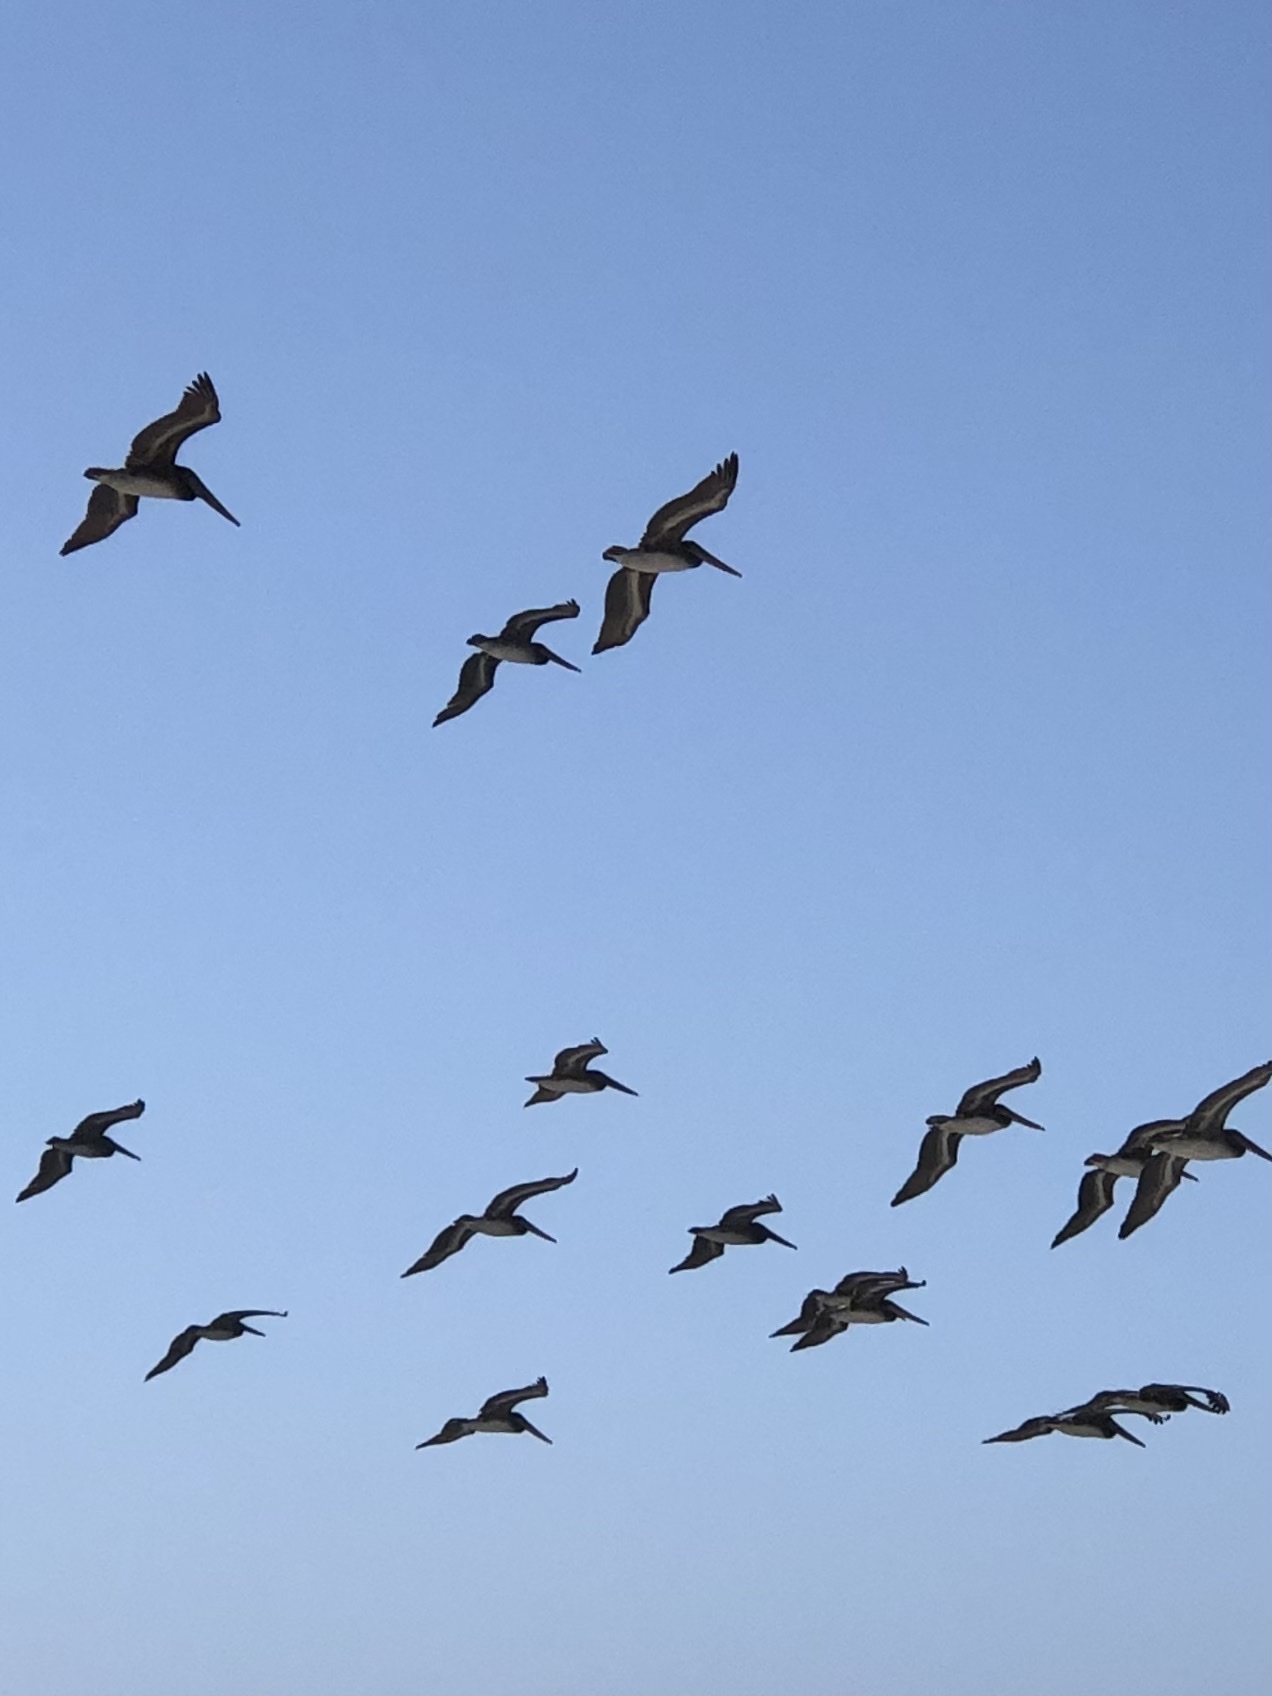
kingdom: Animalia
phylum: Chordata
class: Aves
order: Pelecaniformes
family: Pelecanidae
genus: Pelecanus
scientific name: Pelecanus occidentalis
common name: Brown pelican
